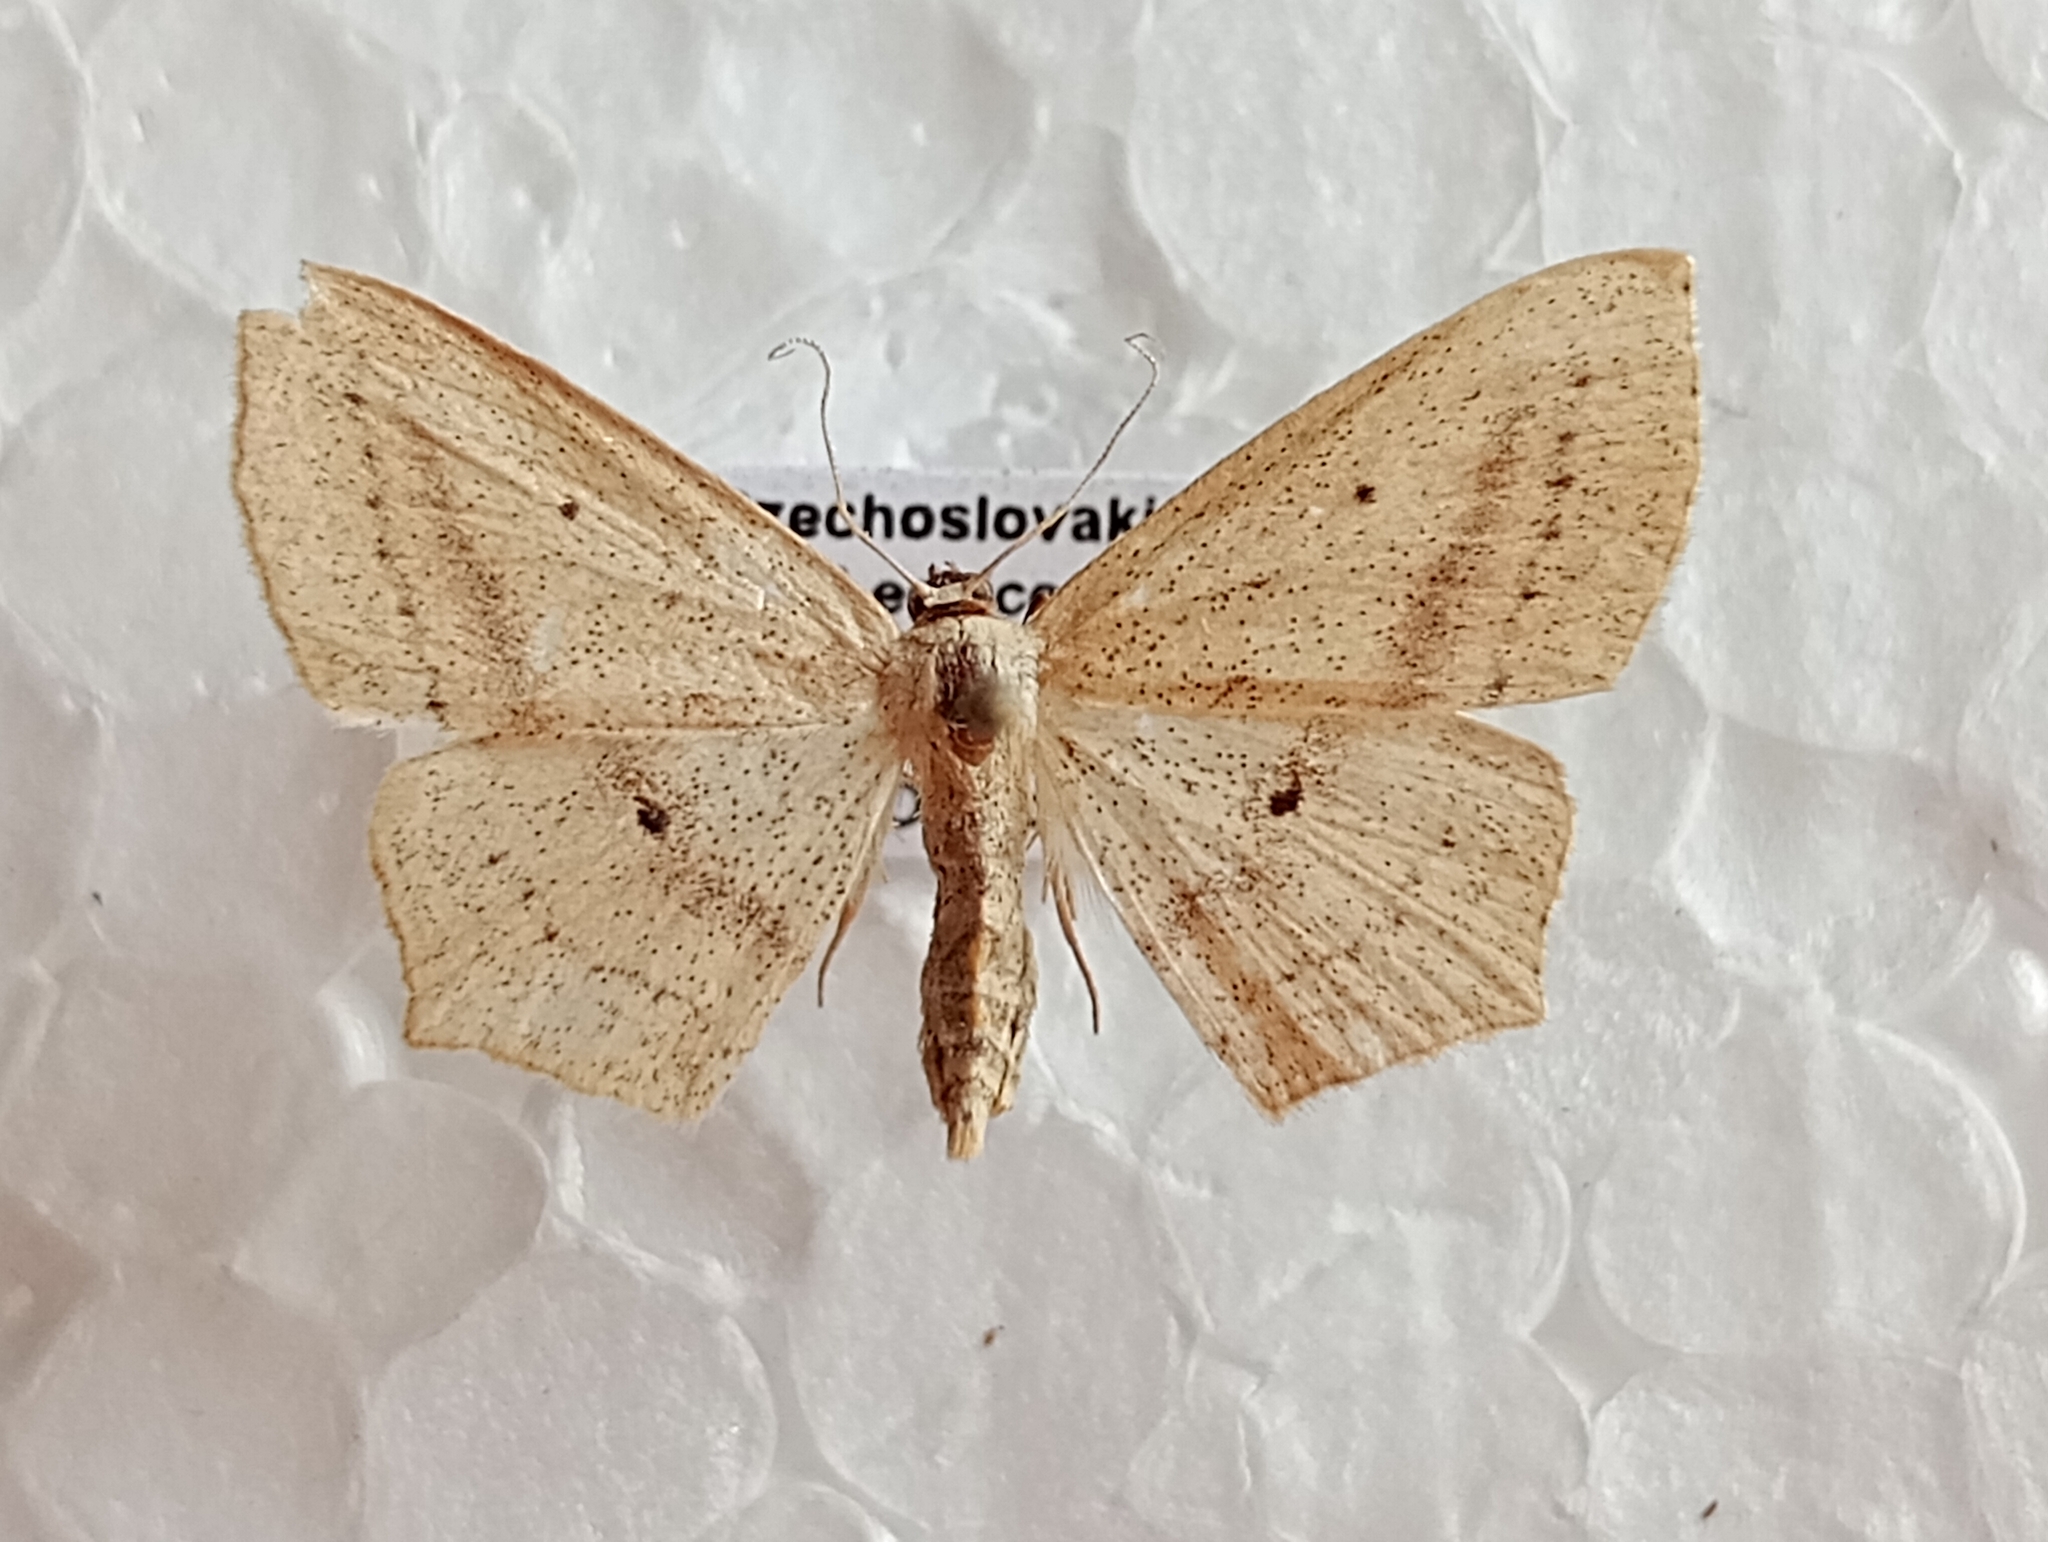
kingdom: Animalia
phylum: Arthropoda
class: Insecta
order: Lepidoptera
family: Geometridae
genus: Scopula
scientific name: Scopula flaccidaria
